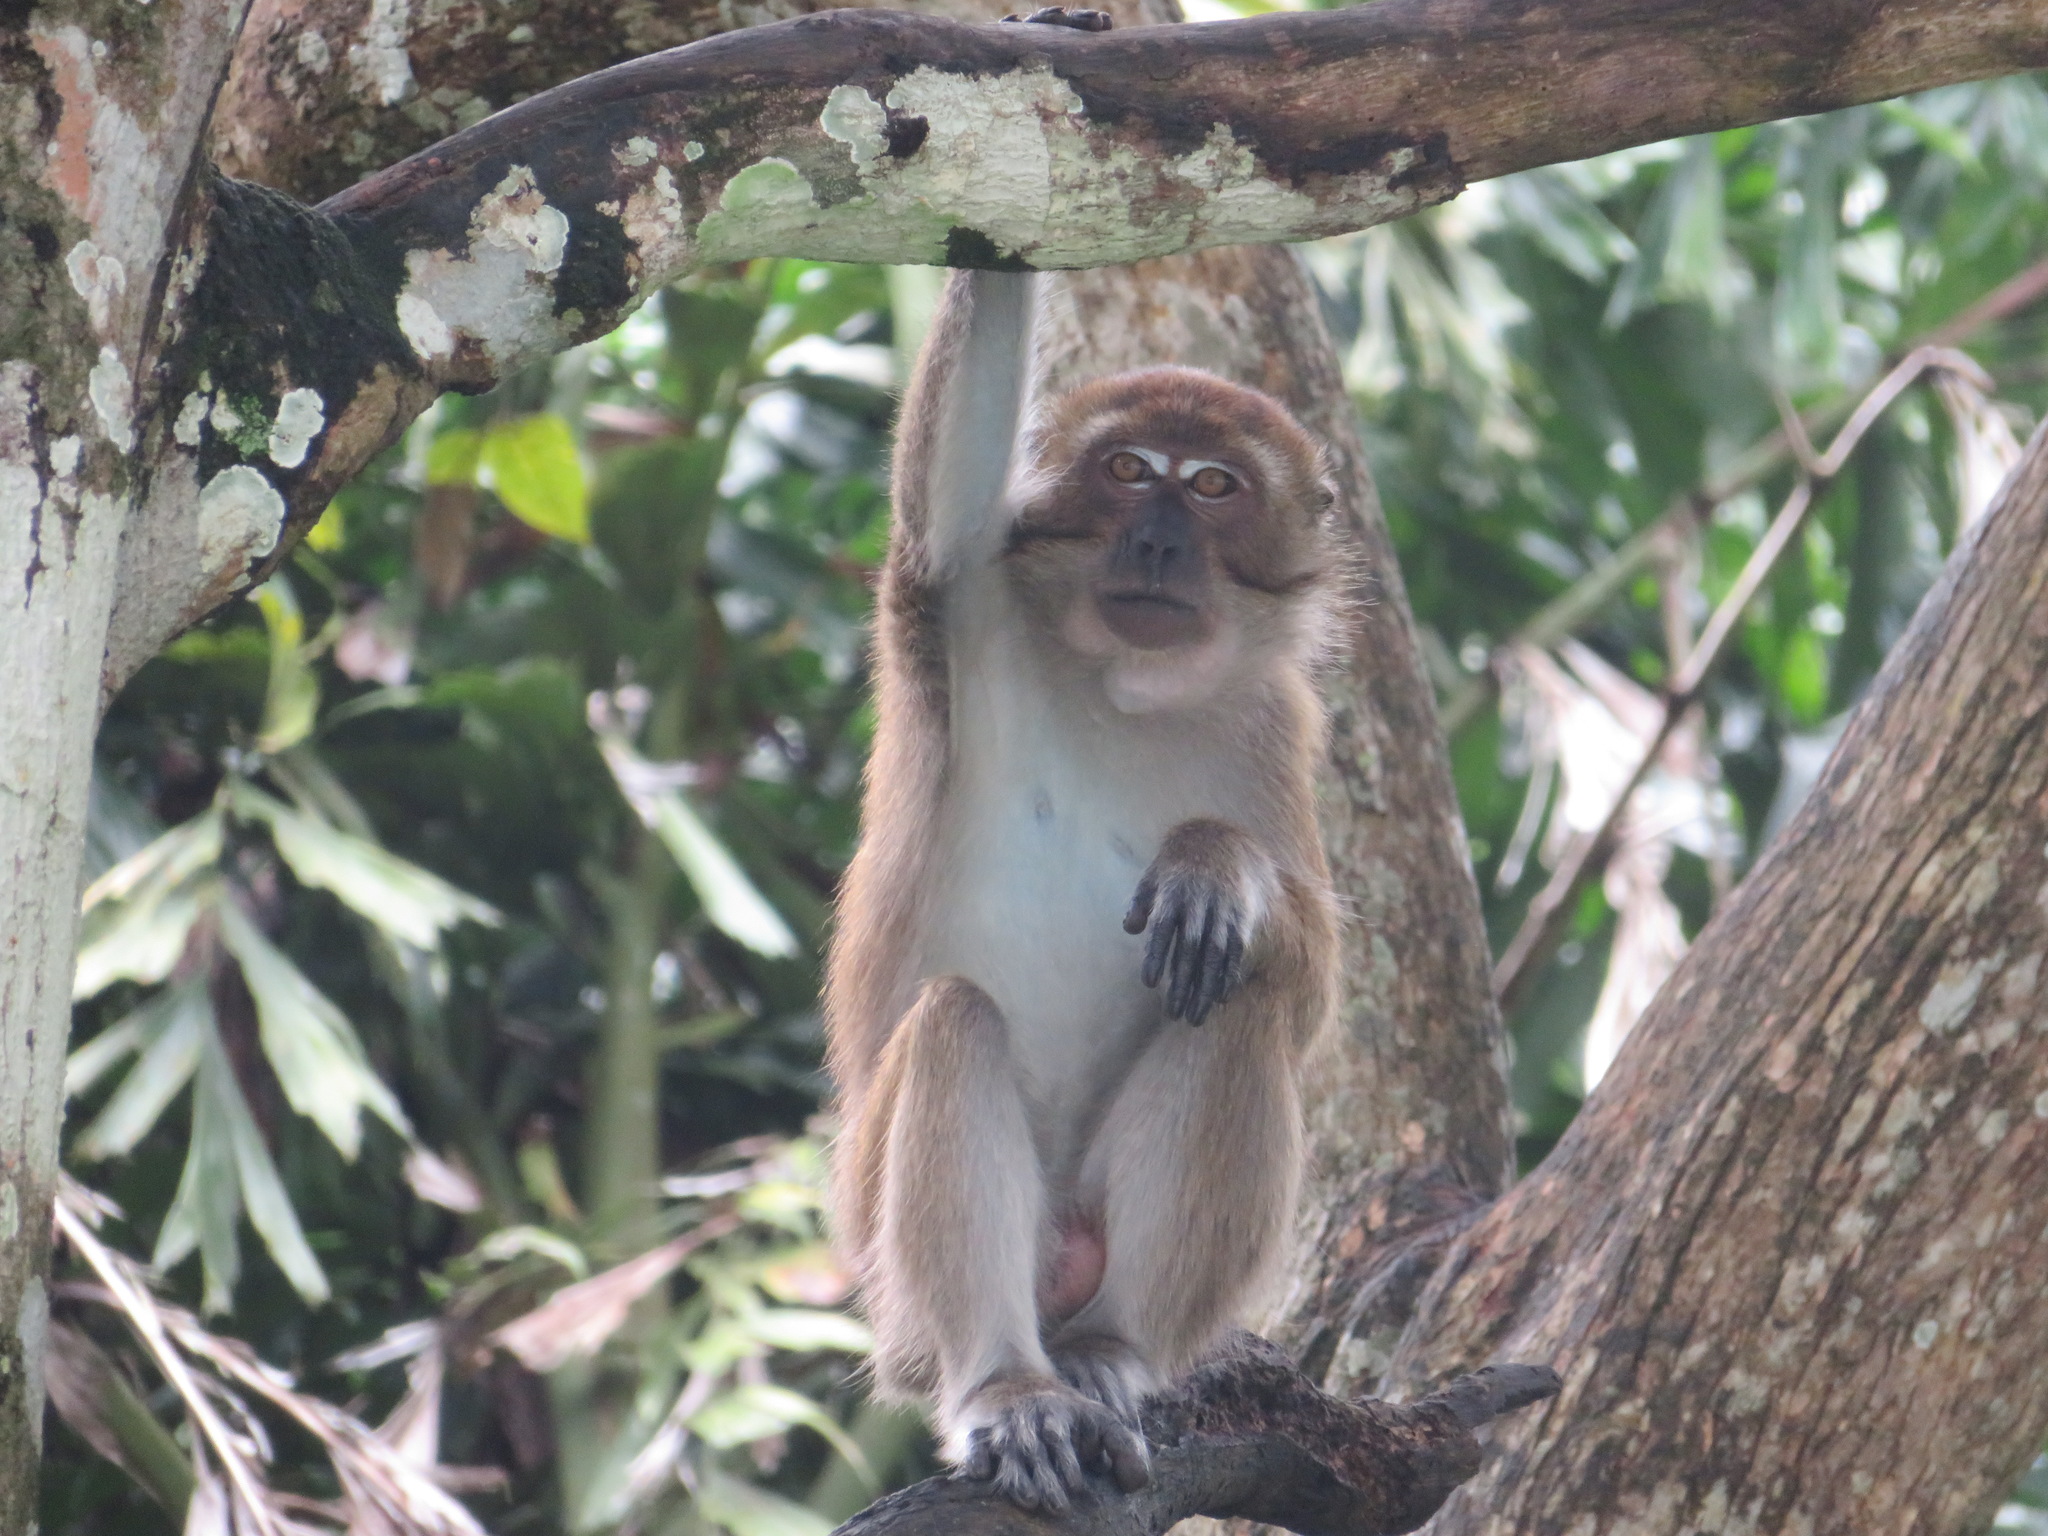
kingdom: Animalia
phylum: Chordata
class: Mammalia
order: Primates
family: Cercopithecidae
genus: Macaca
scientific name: Macaca fascicularis
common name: Crab-eating macaque
